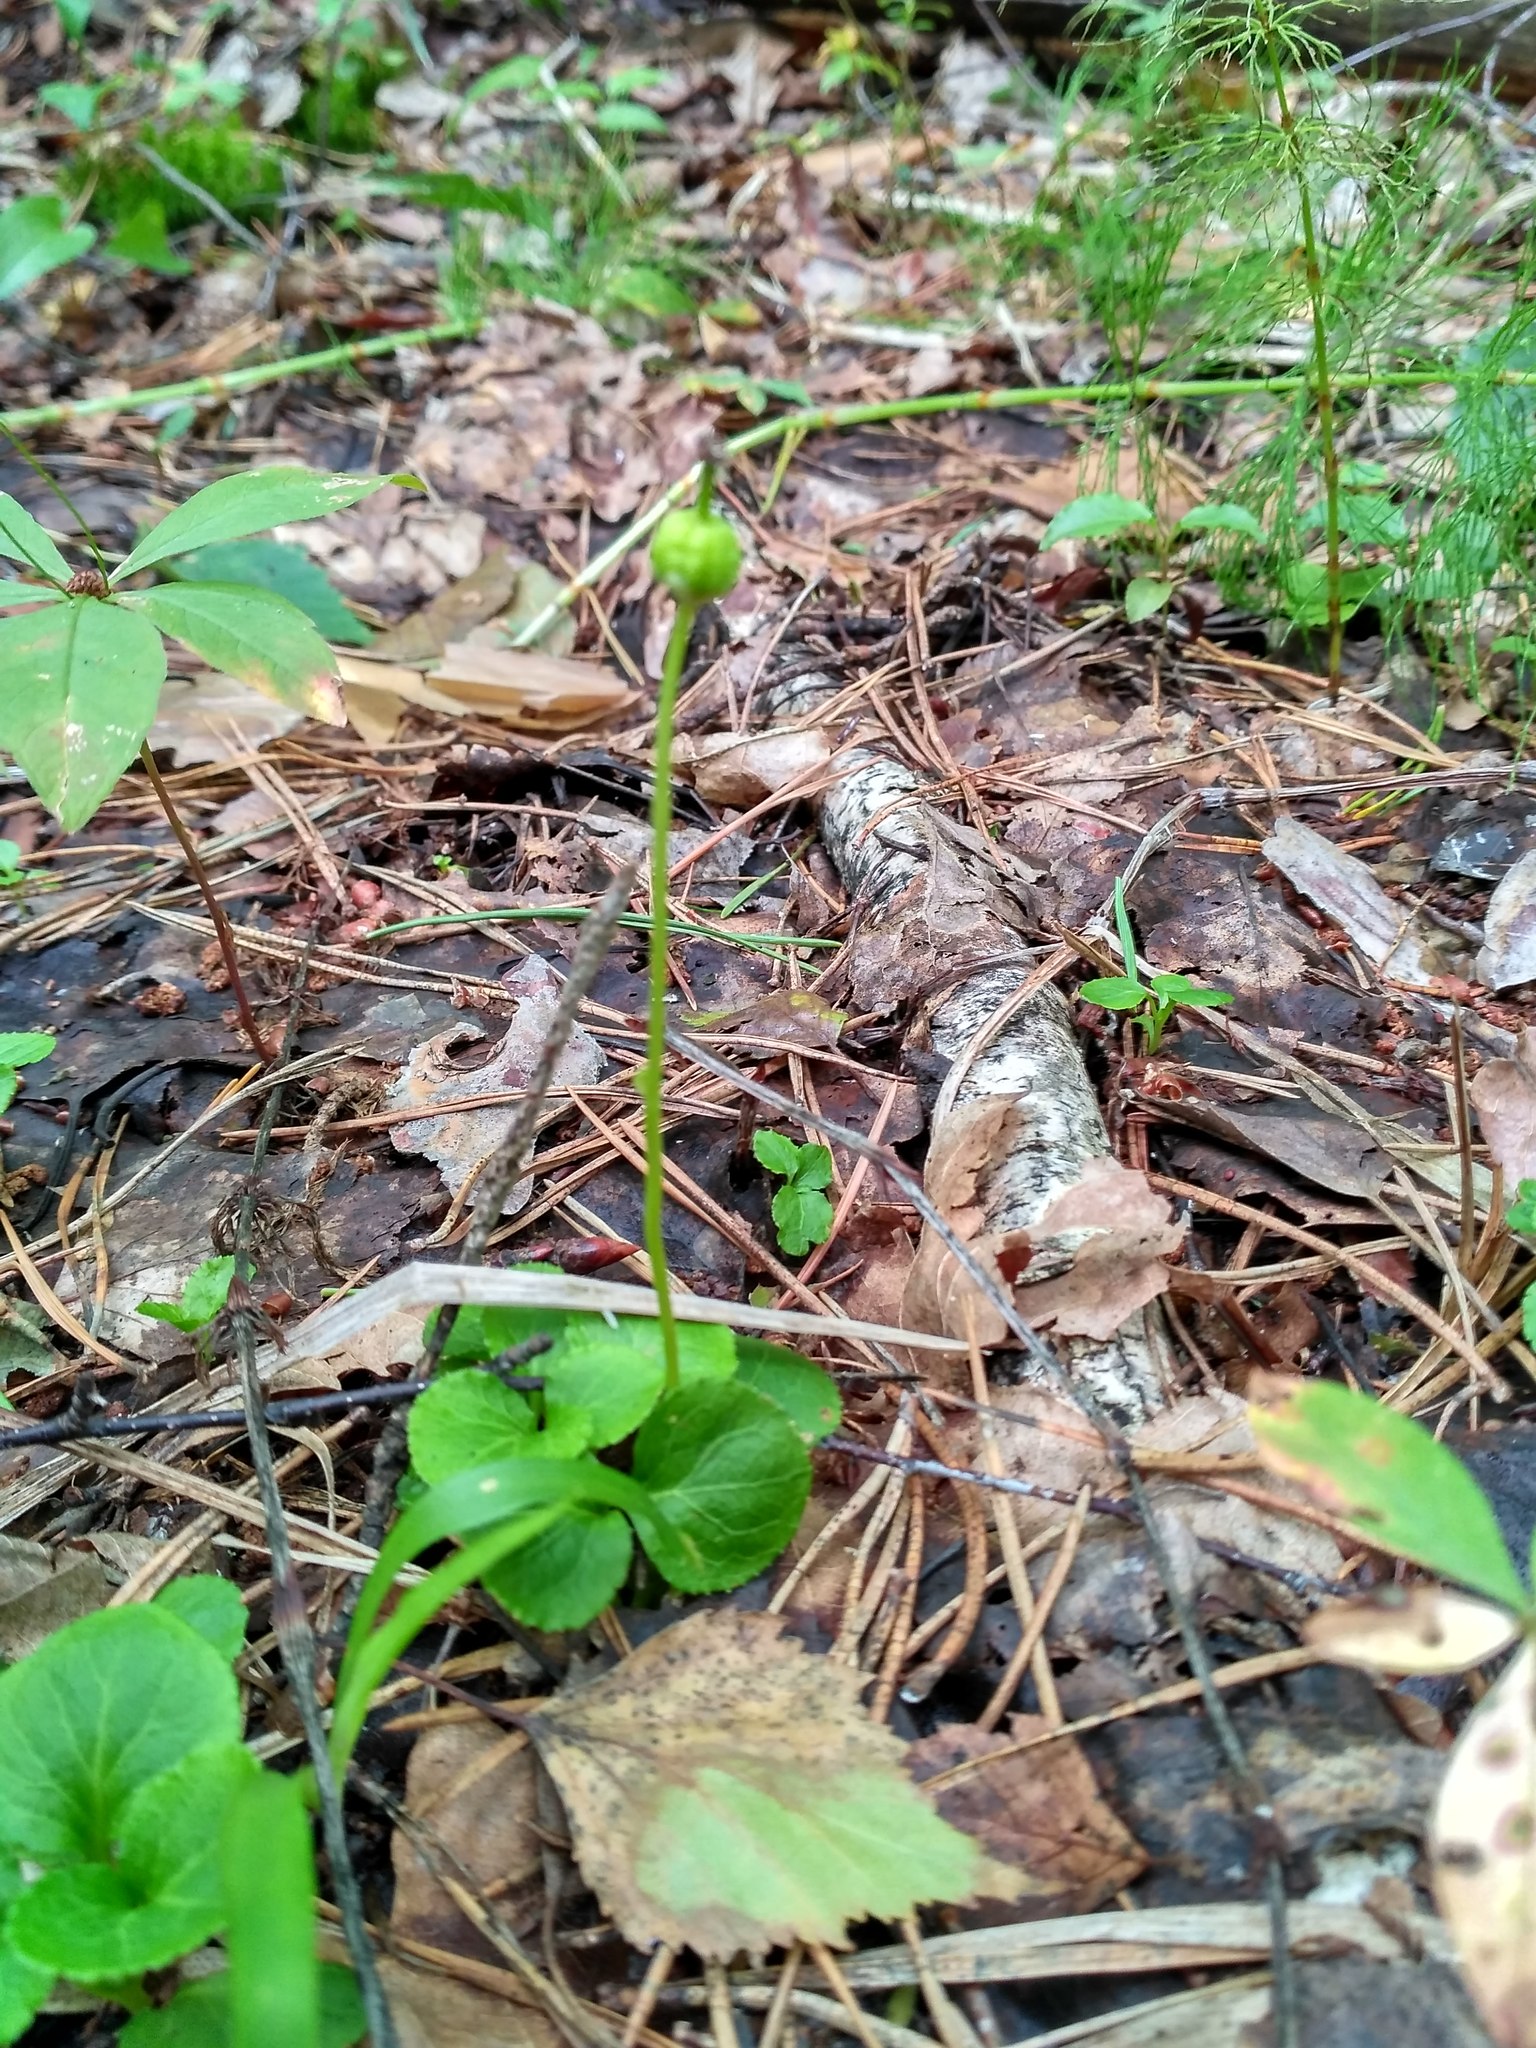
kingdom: Plantae
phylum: Tracheophyta
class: Magnoliopsida
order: Ericales
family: Ericaceae
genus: Moneses
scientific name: Moneses uniflora
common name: One-flowered wintergreen
